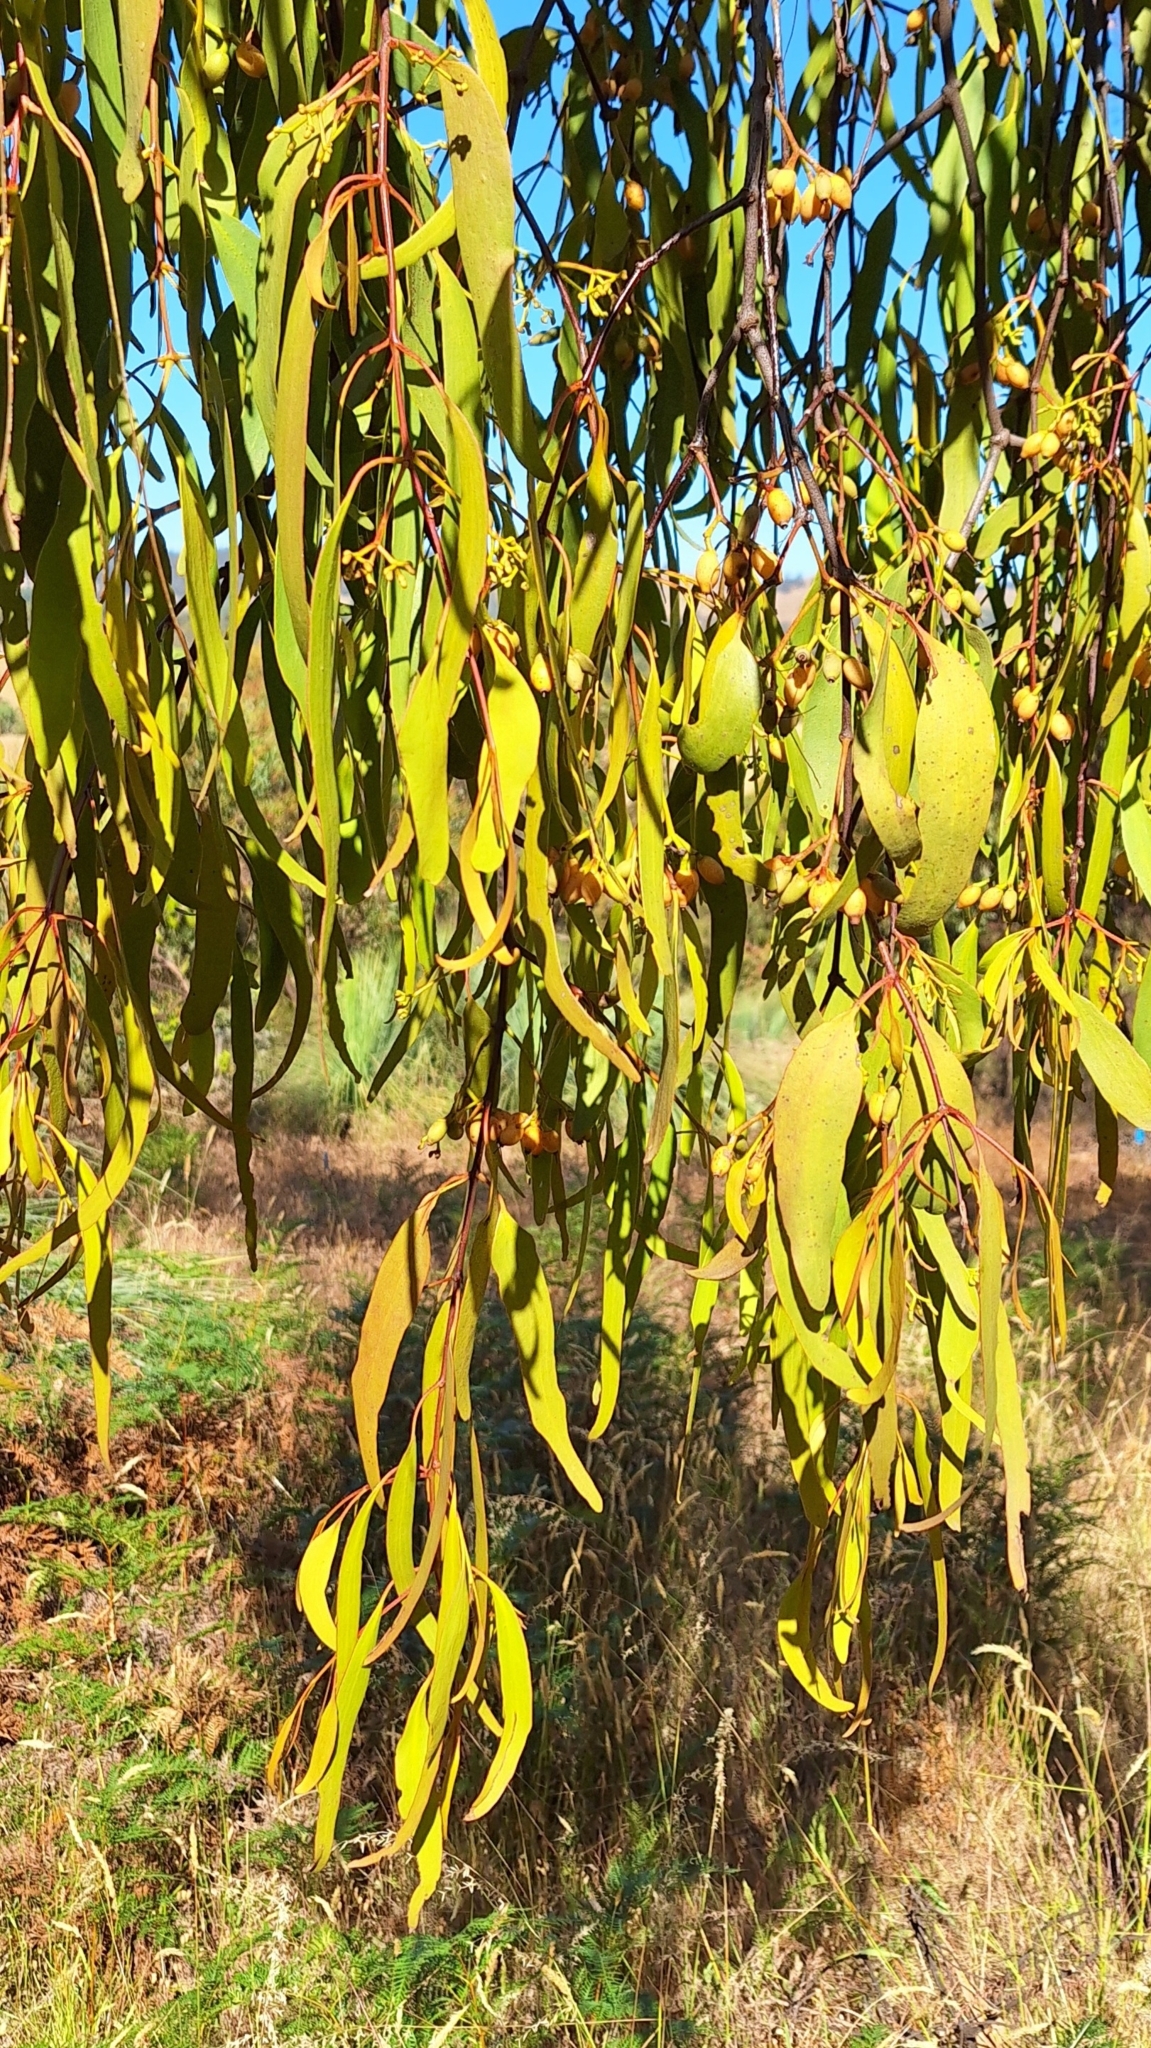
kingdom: Plantae
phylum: Tracheophyta
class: Magnoliopsida
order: Santalales
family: Loranthaceae
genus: Amyema
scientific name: Amyema miquelii
